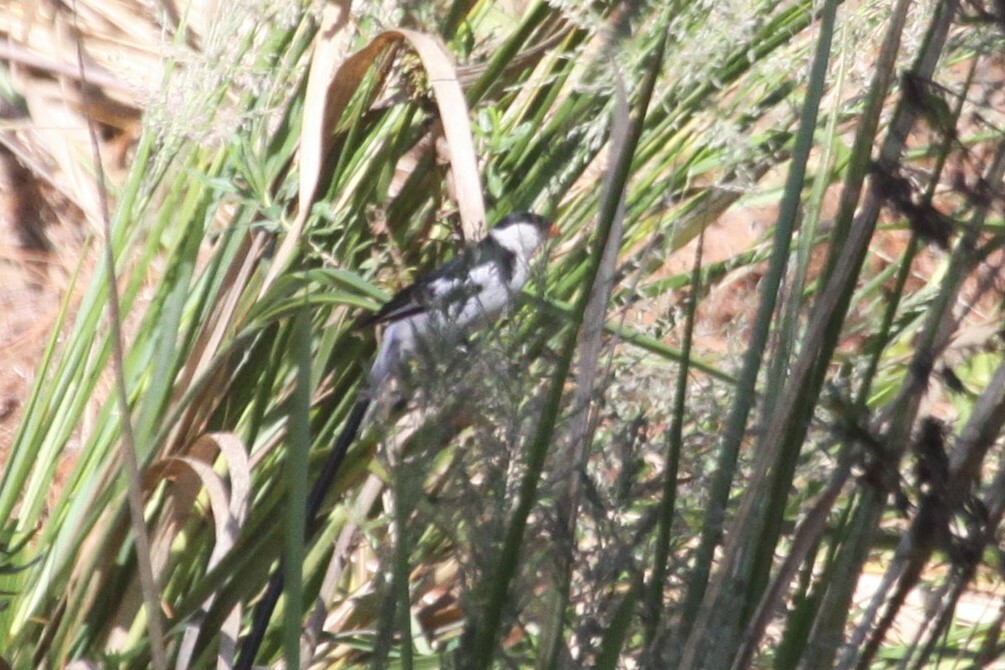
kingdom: Animalia
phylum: Chordata
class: Aves
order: Passeriformes
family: Viduidae
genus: Vidua
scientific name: Vidua macroura
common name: Pin-tailed whydah
